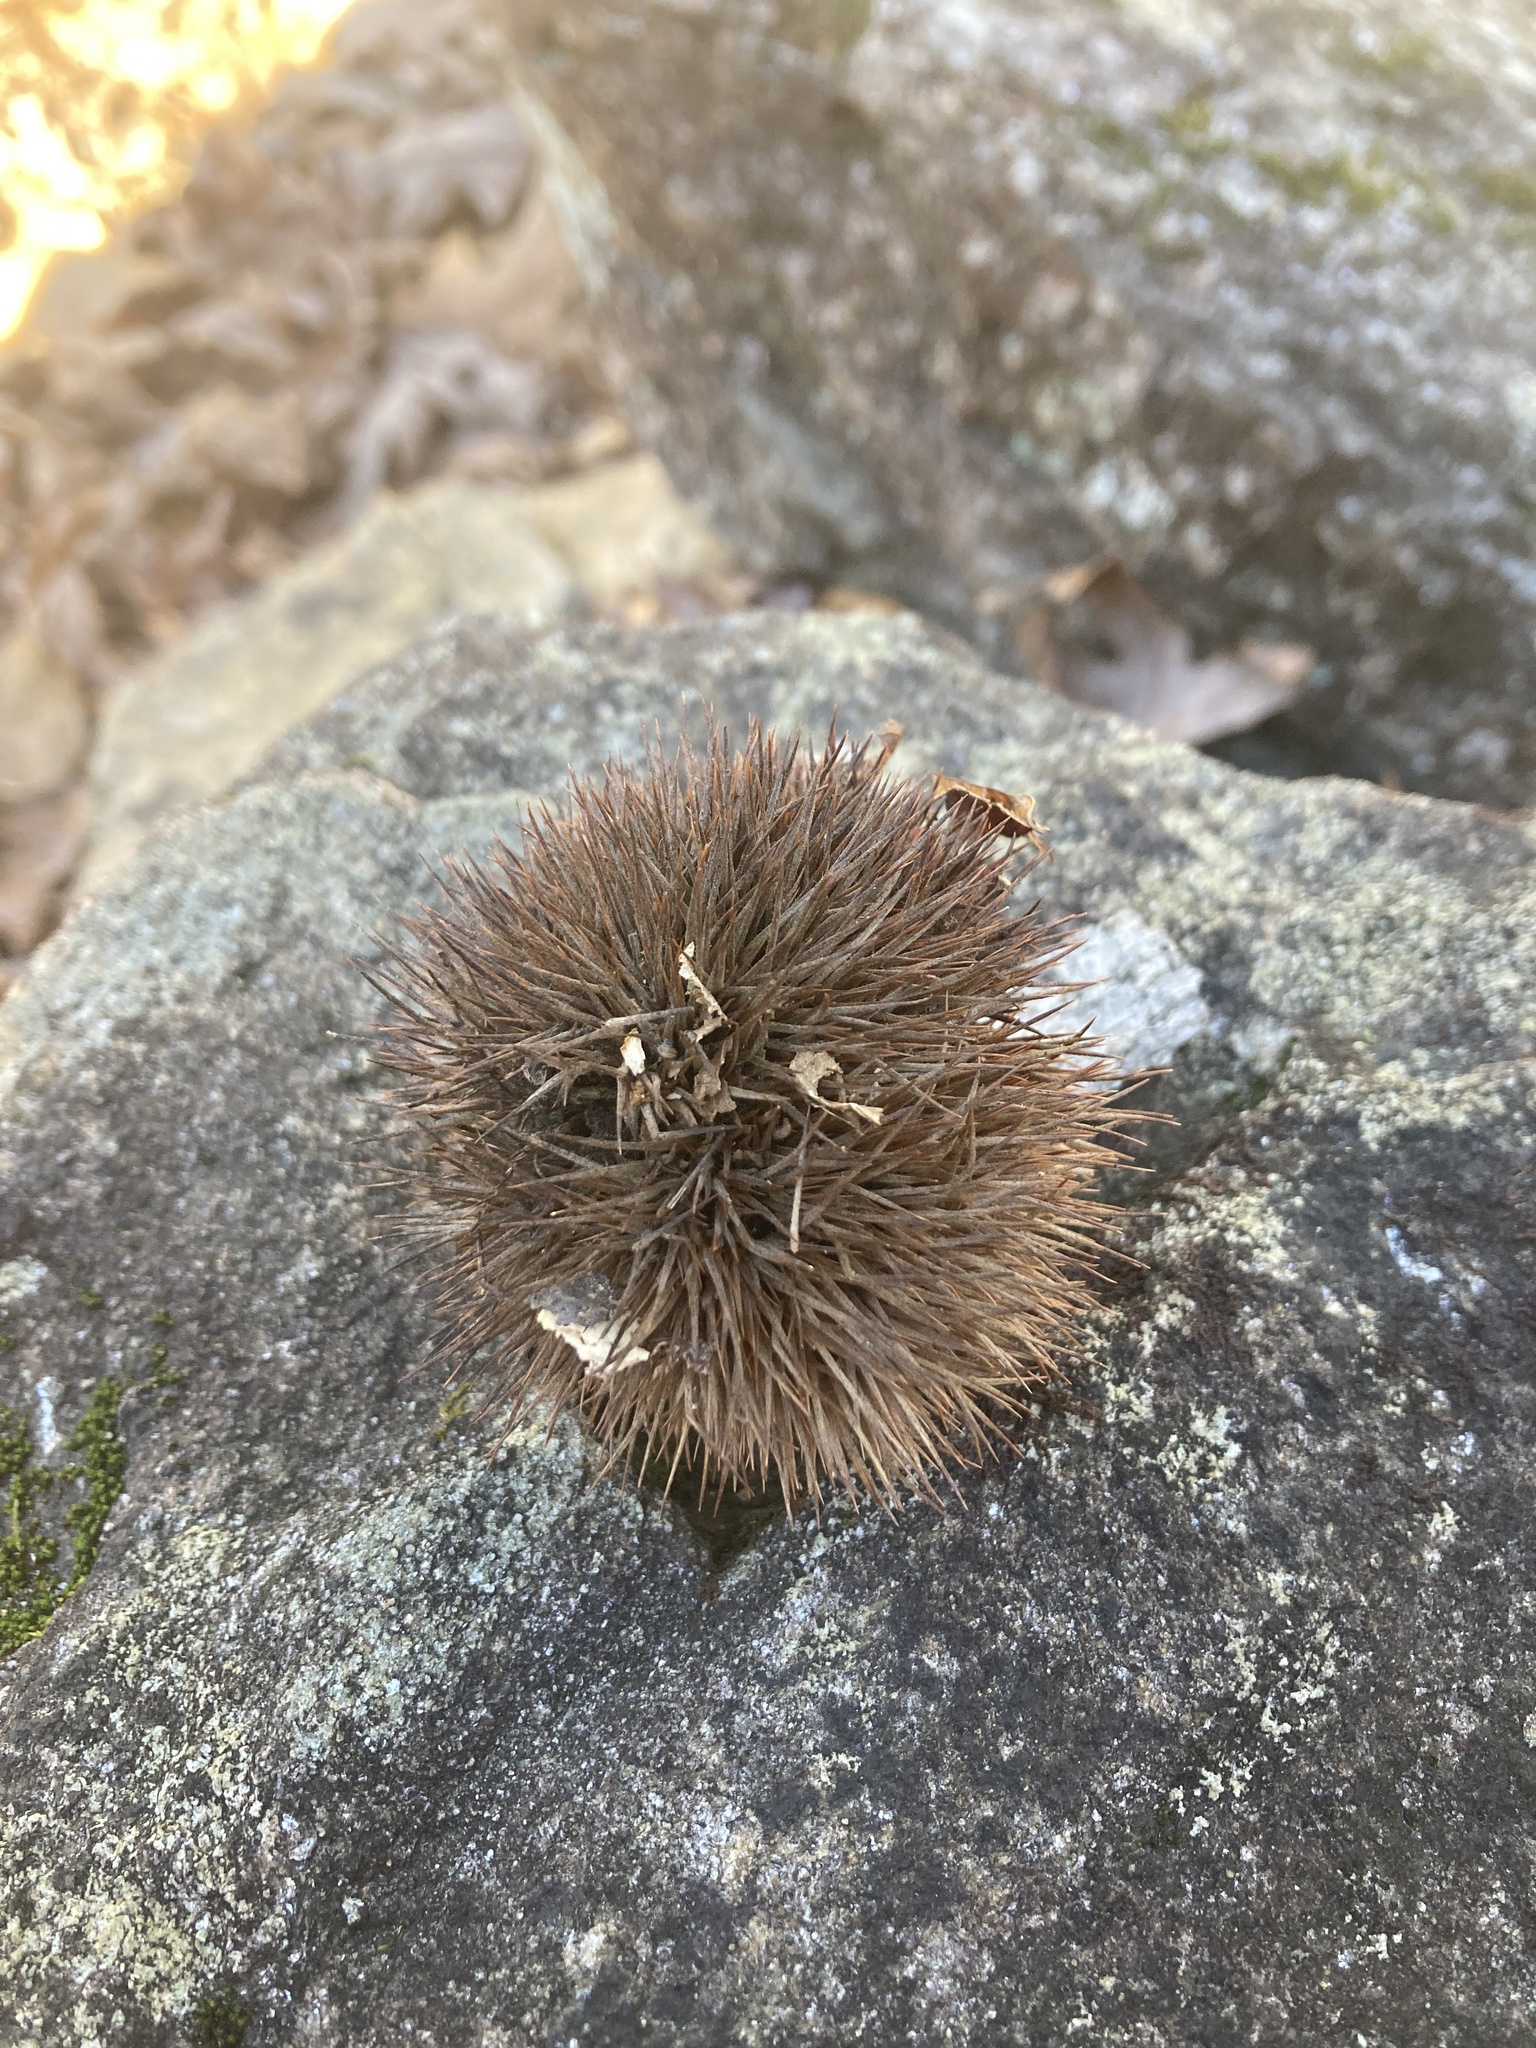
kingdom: Plantae
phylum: Tracheophyta
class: Magnoliopsida
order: Fagales
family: Fagaceae
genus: Castanea
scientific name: Castanea mollissima
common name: Chinese chestnut
